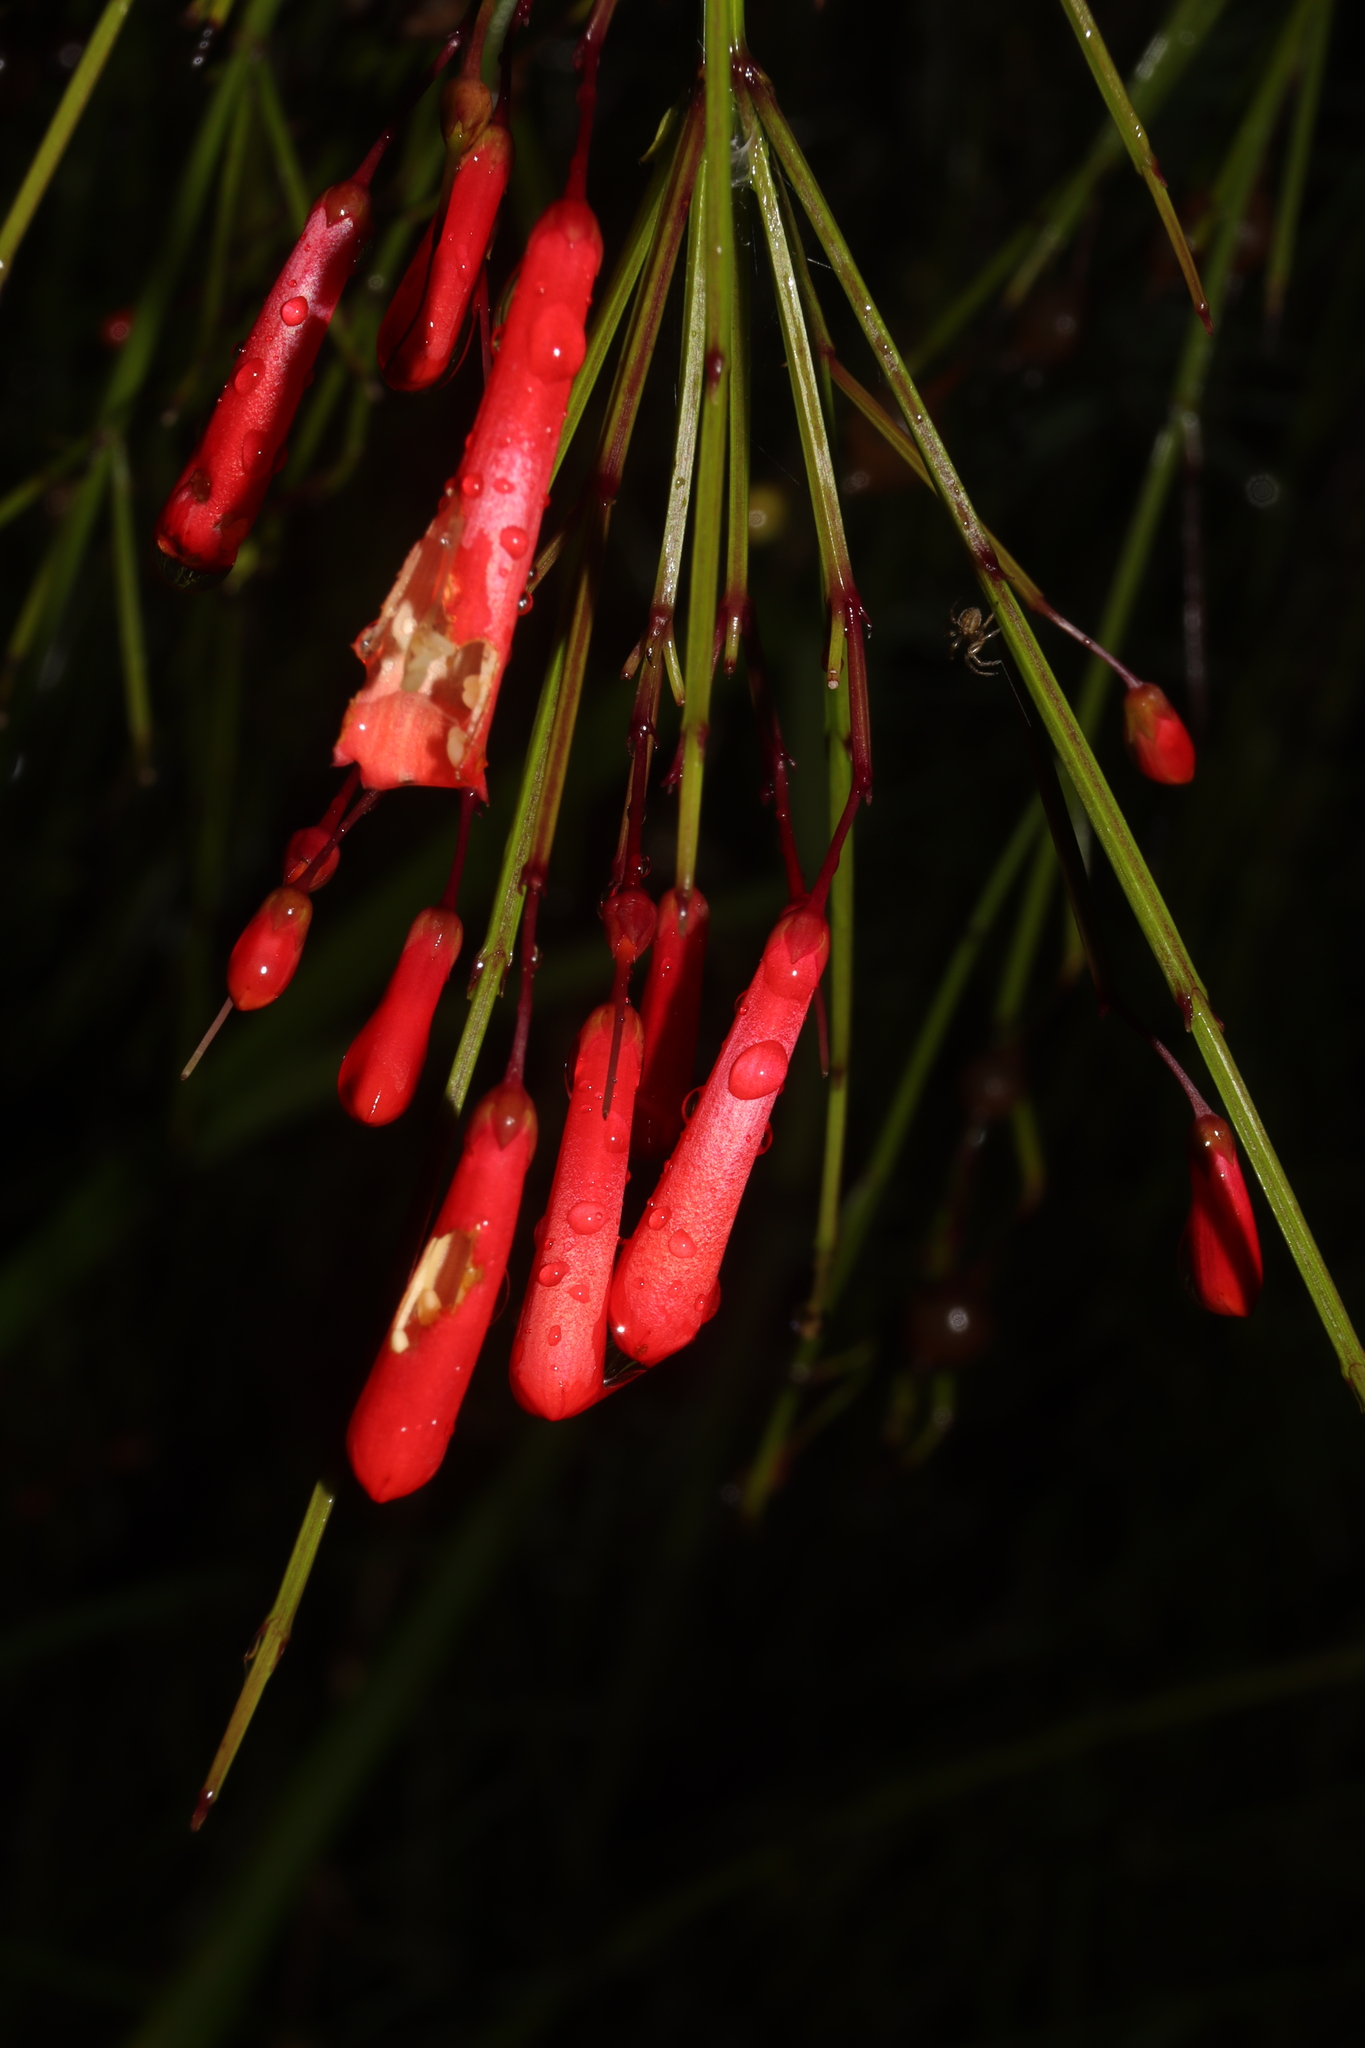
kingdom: Plantae
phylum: Tracheophyta
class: Magnoliopsida
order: Lamiales
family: Plantaginaceae
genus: Russelia
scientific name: Russelia equisetiformis
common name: Fountainbush
